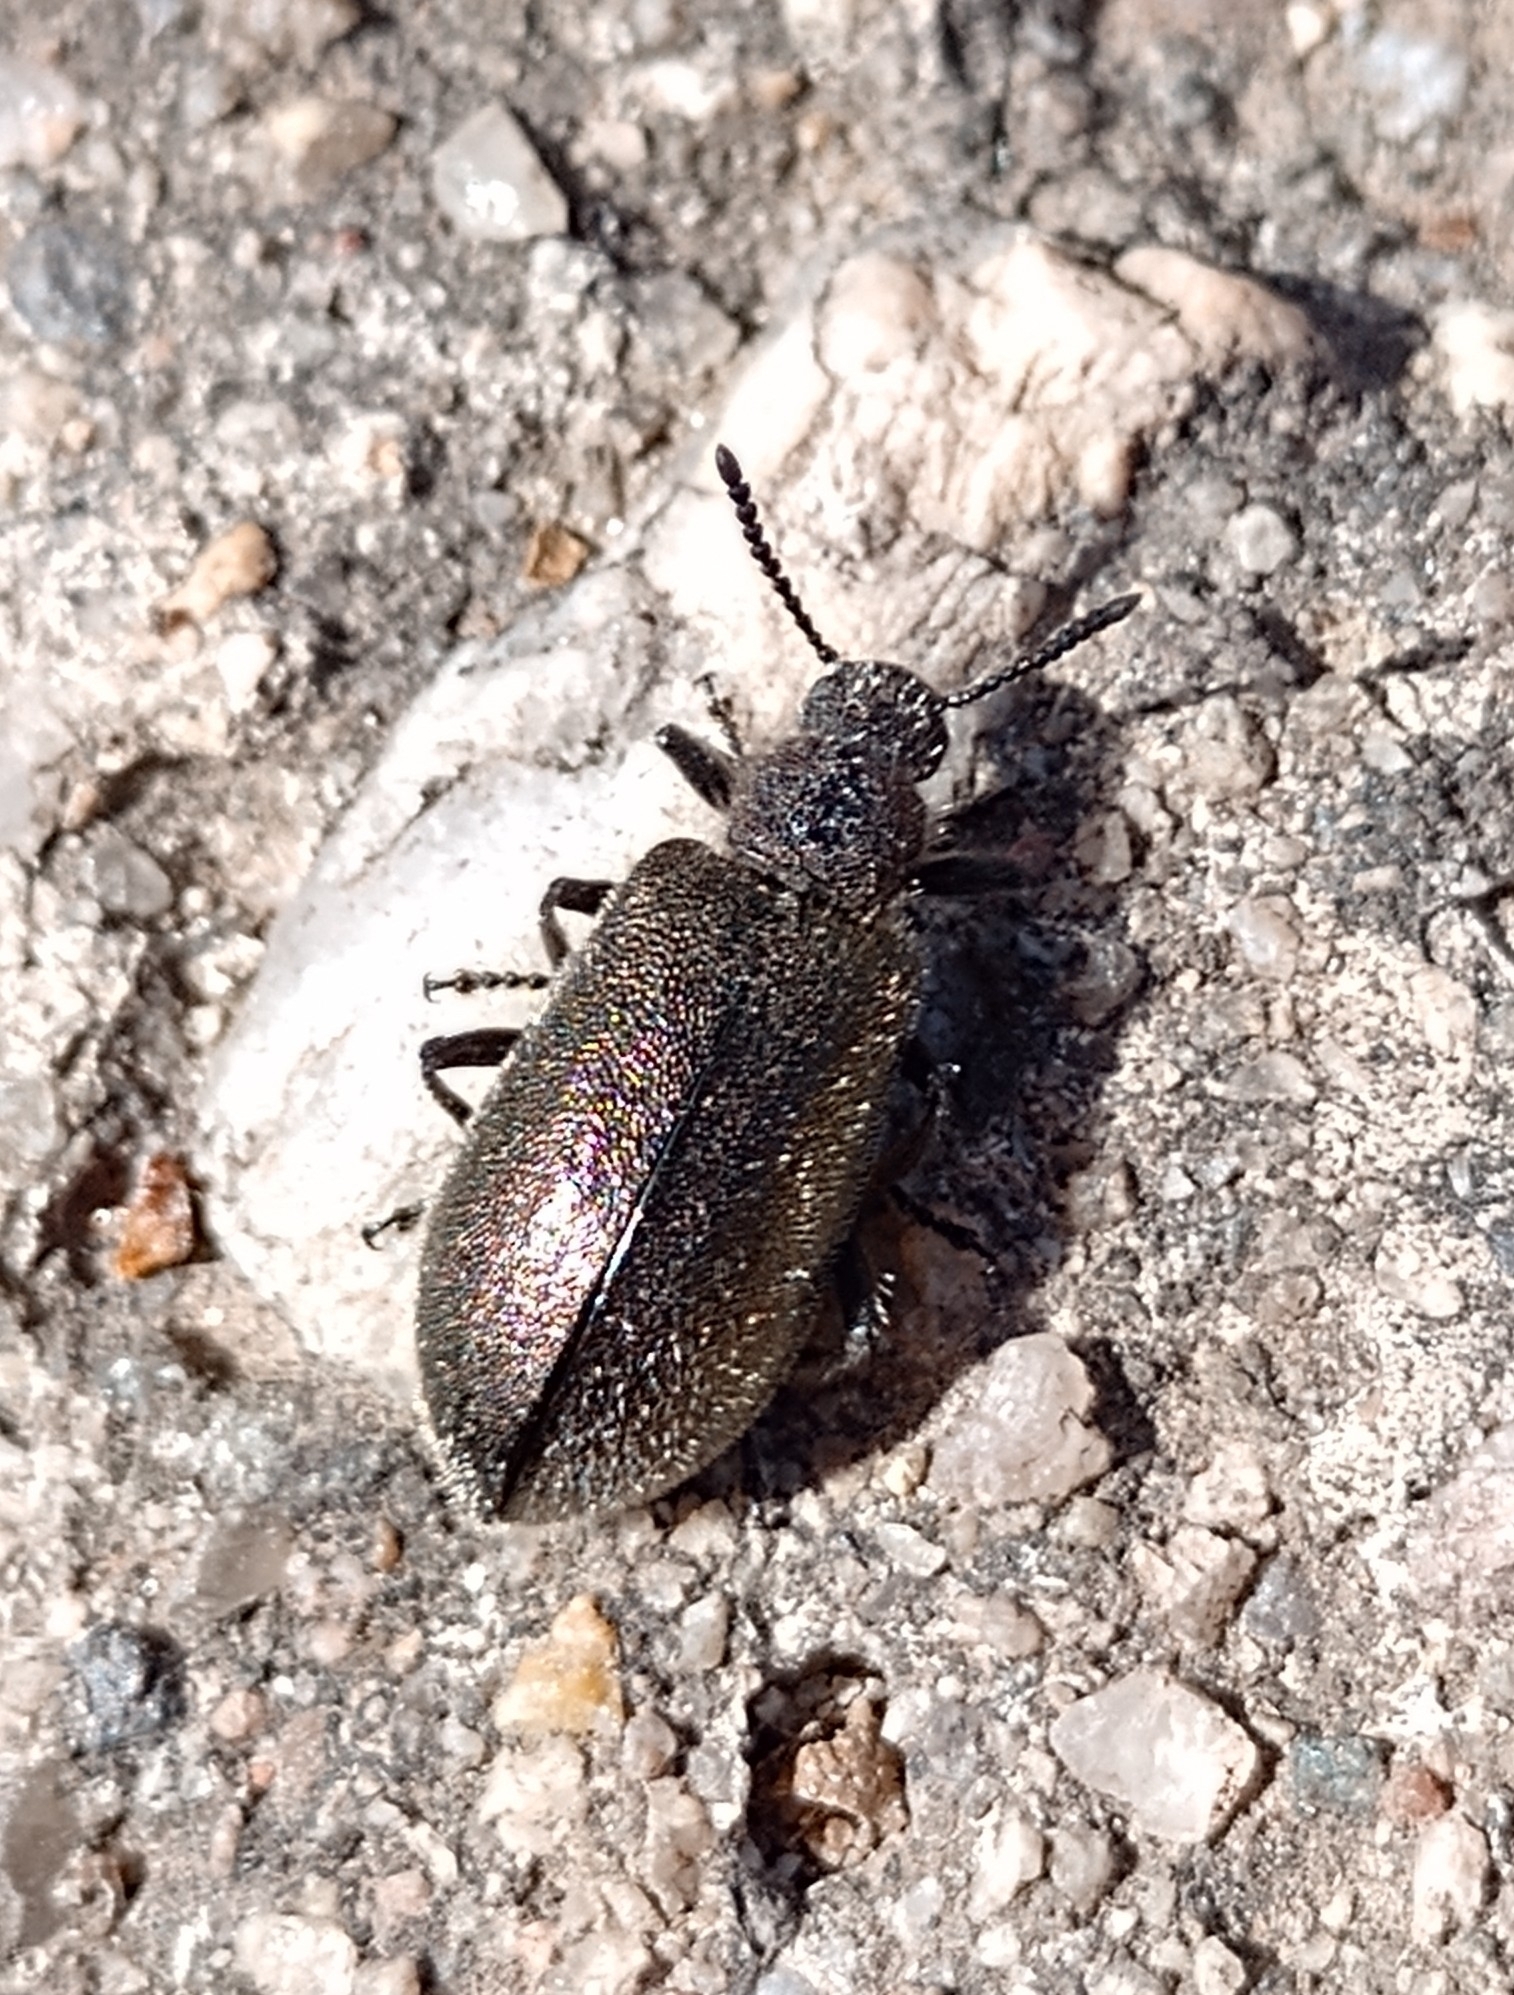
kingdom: Animalia
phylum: Arthropoda
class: Insecta
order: Coleoptera
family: Tenebrionidae
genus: Lagria
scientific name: Lagria villosa
